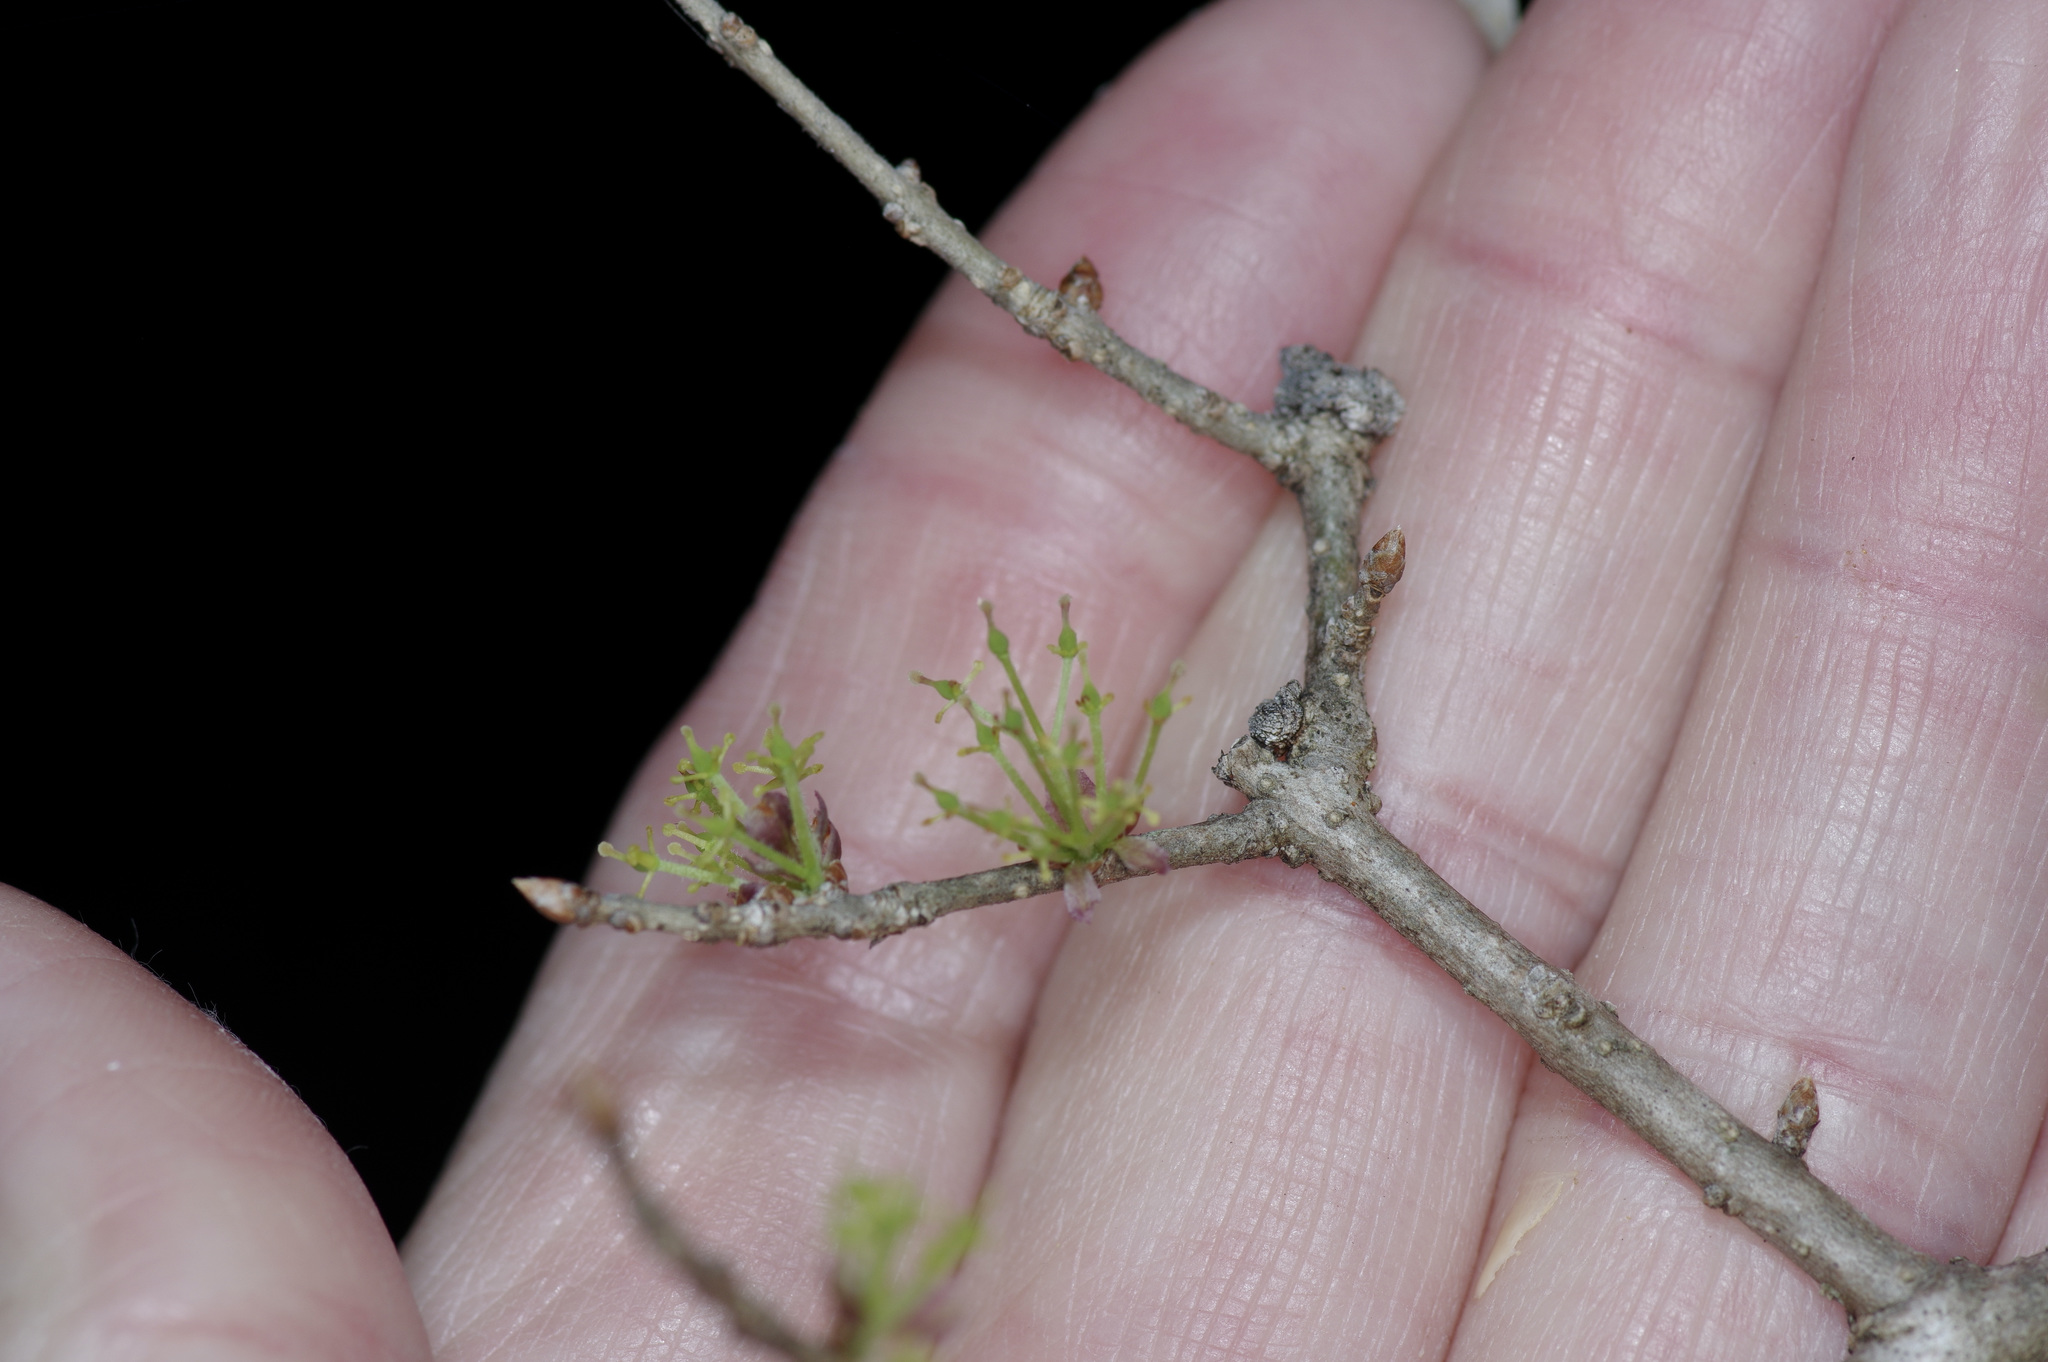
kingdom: Plantae
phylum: Tracheophyta
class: Magnoliopsida
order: Lamiales
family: Oleaceae
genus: Forestiera
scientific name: Forestiera pubescens
